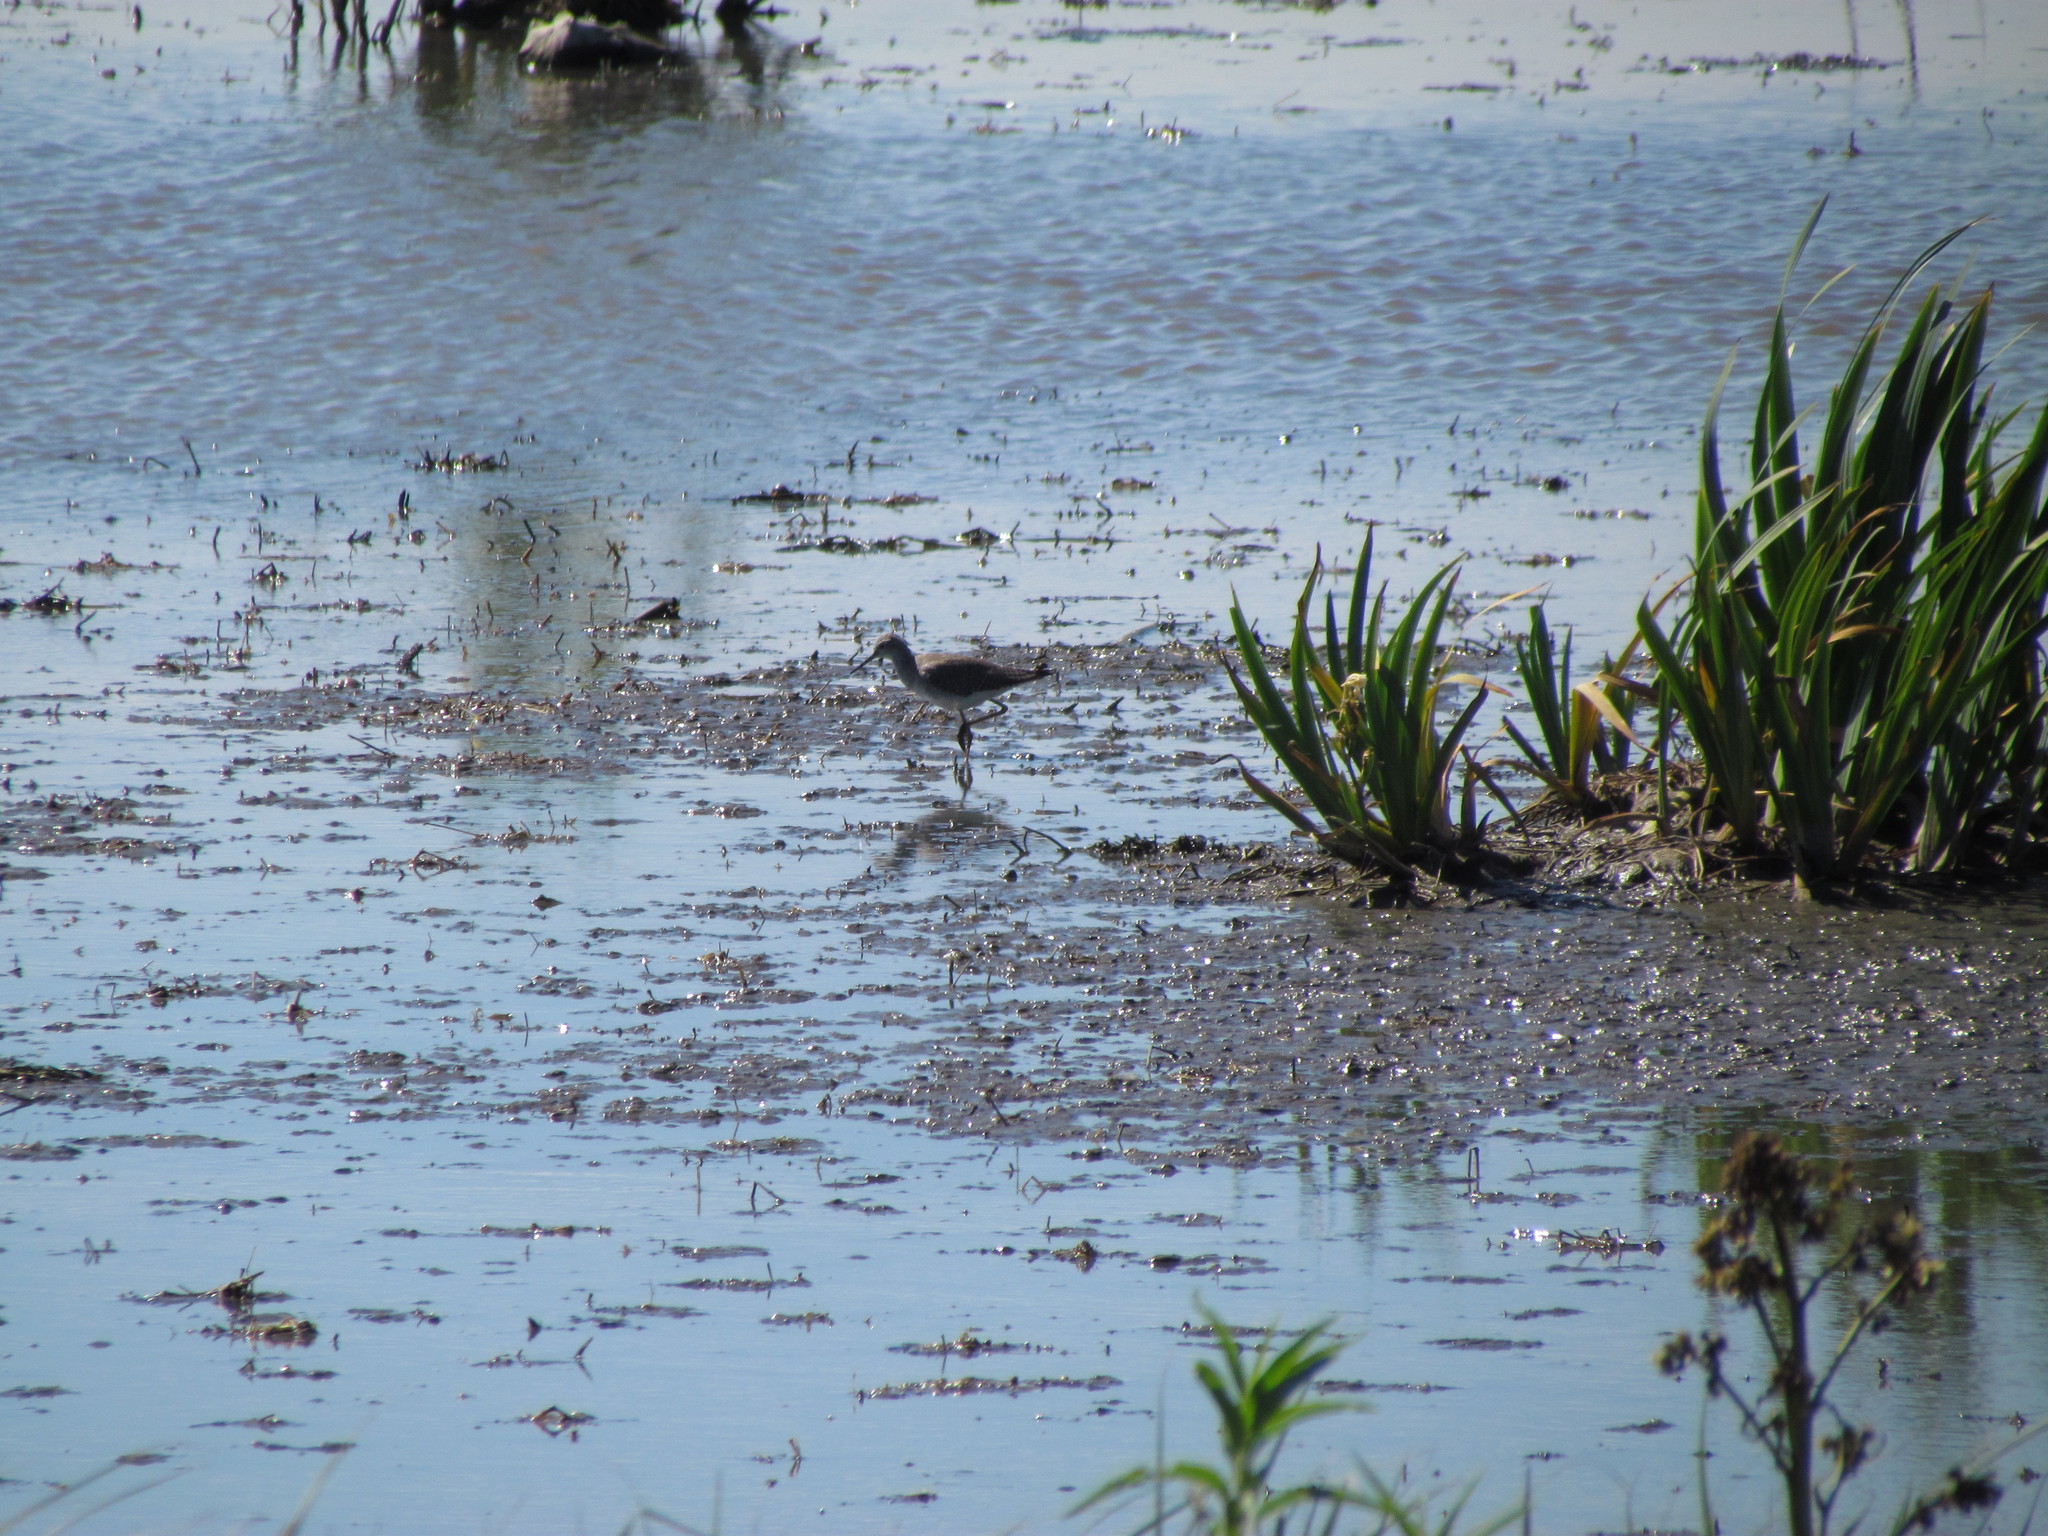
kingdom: Animalia
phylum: Chordata
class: Aves
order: Charadriiformes
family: Scolopacidae
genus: Tringa
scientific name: Tringa flavipes
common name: Lesser yellowlegs
